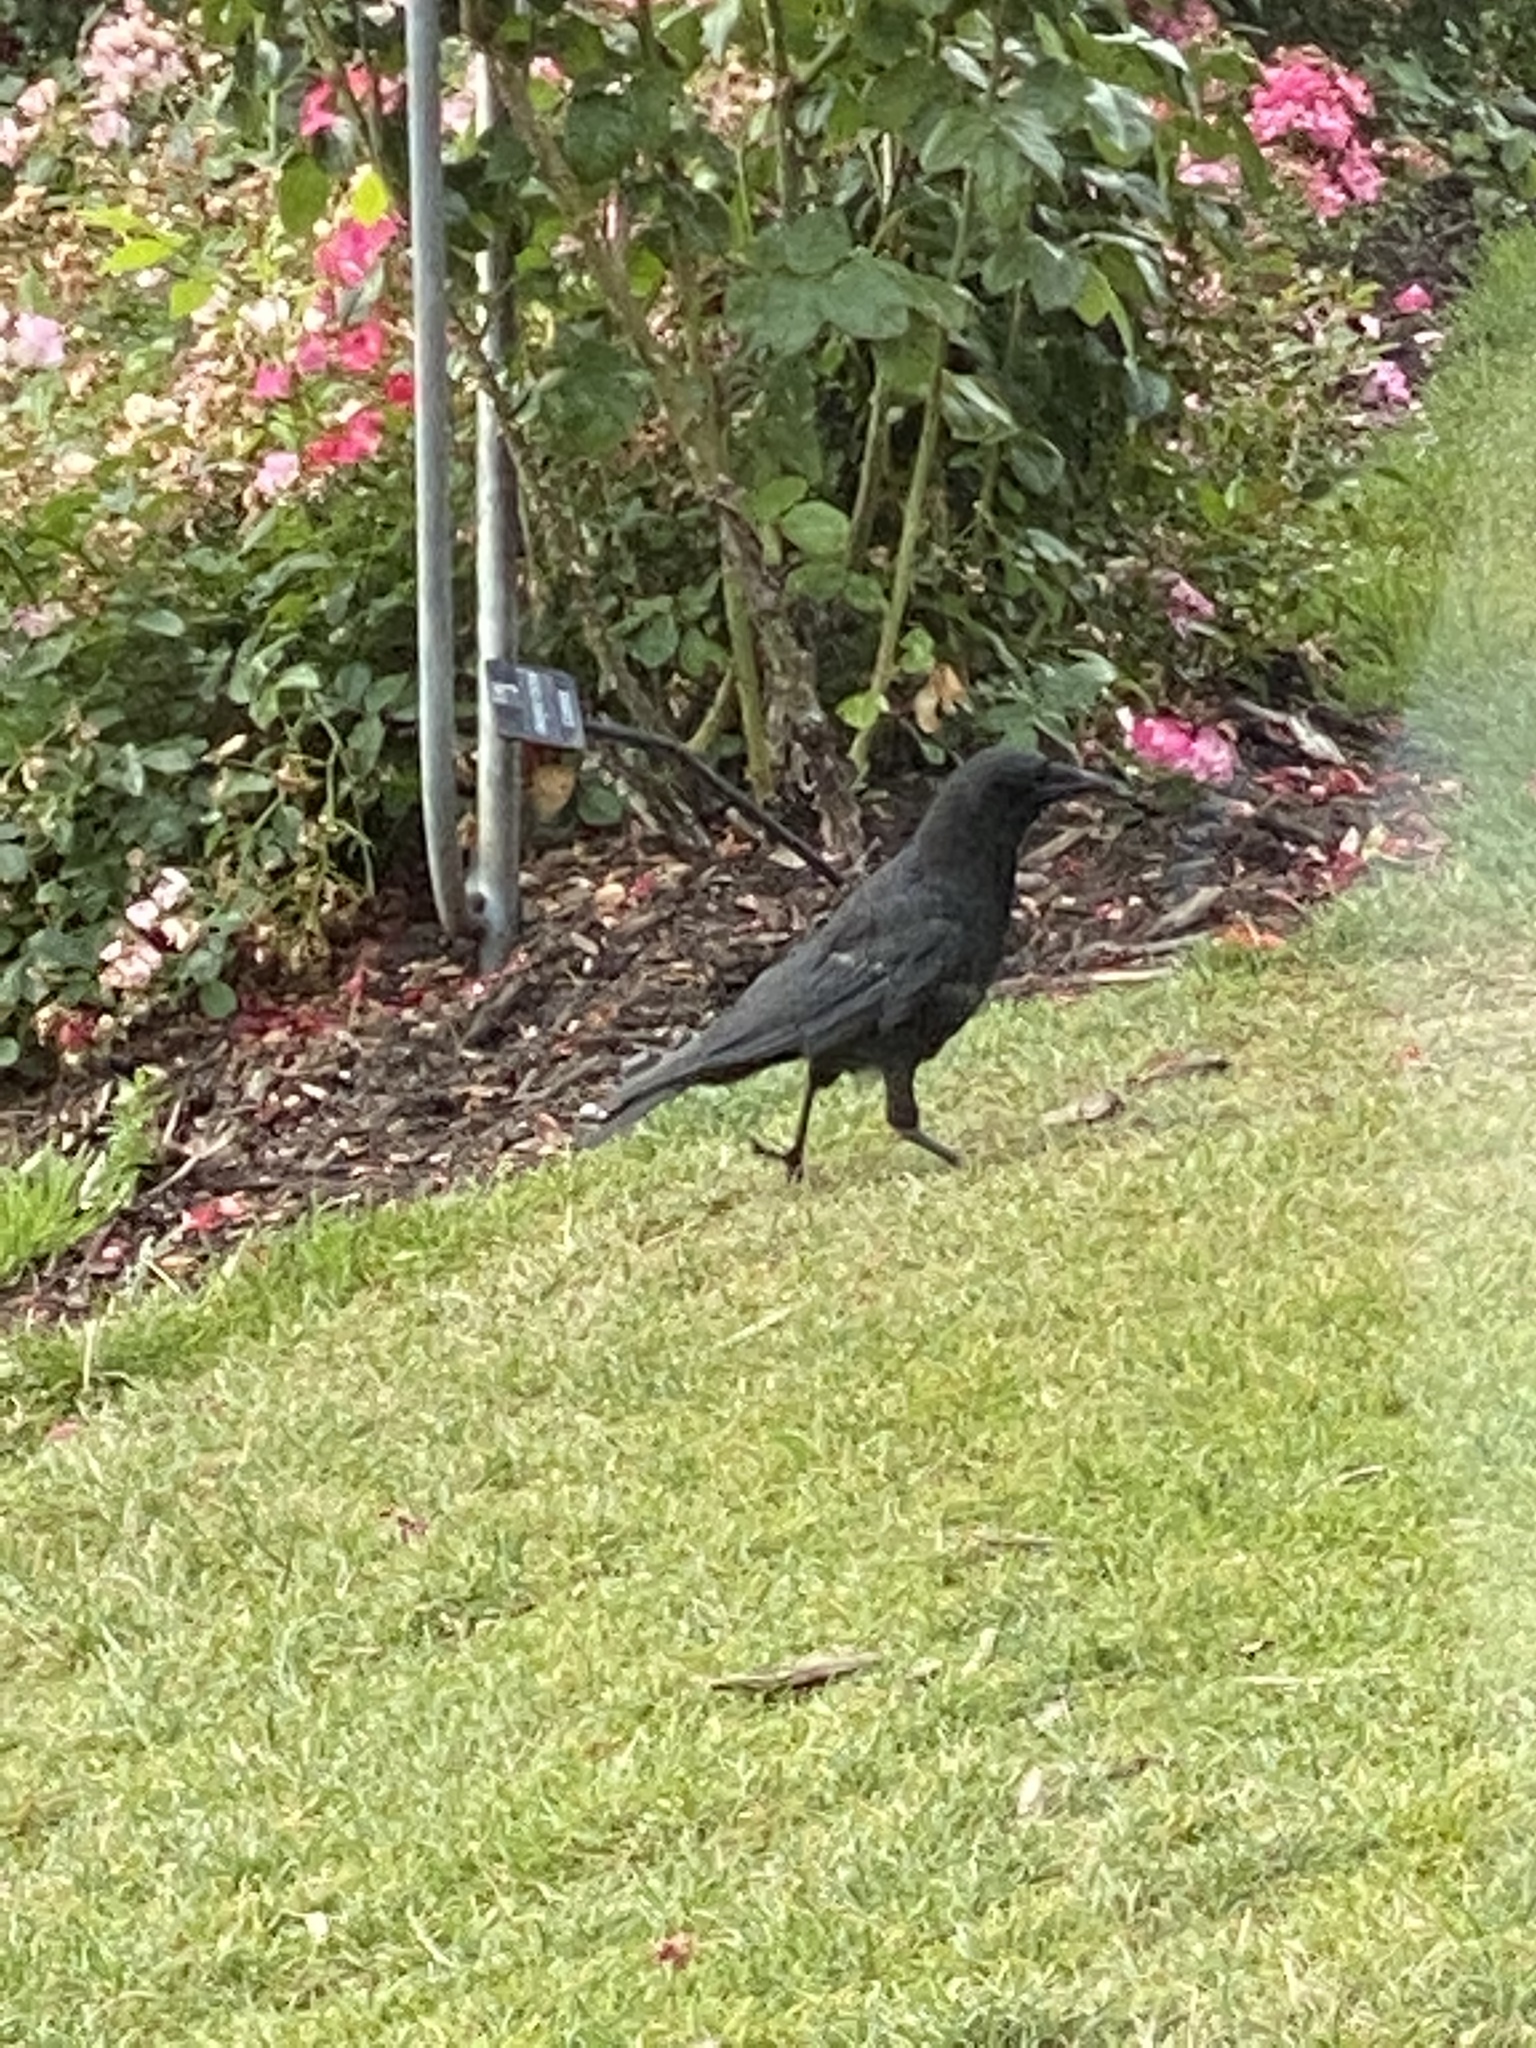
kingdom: Animalia
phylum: Chordata
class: Aves
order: Passeriformes
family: Corvidae
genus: Corvus
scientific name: Corvus brachyrhynchos
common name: American crow
